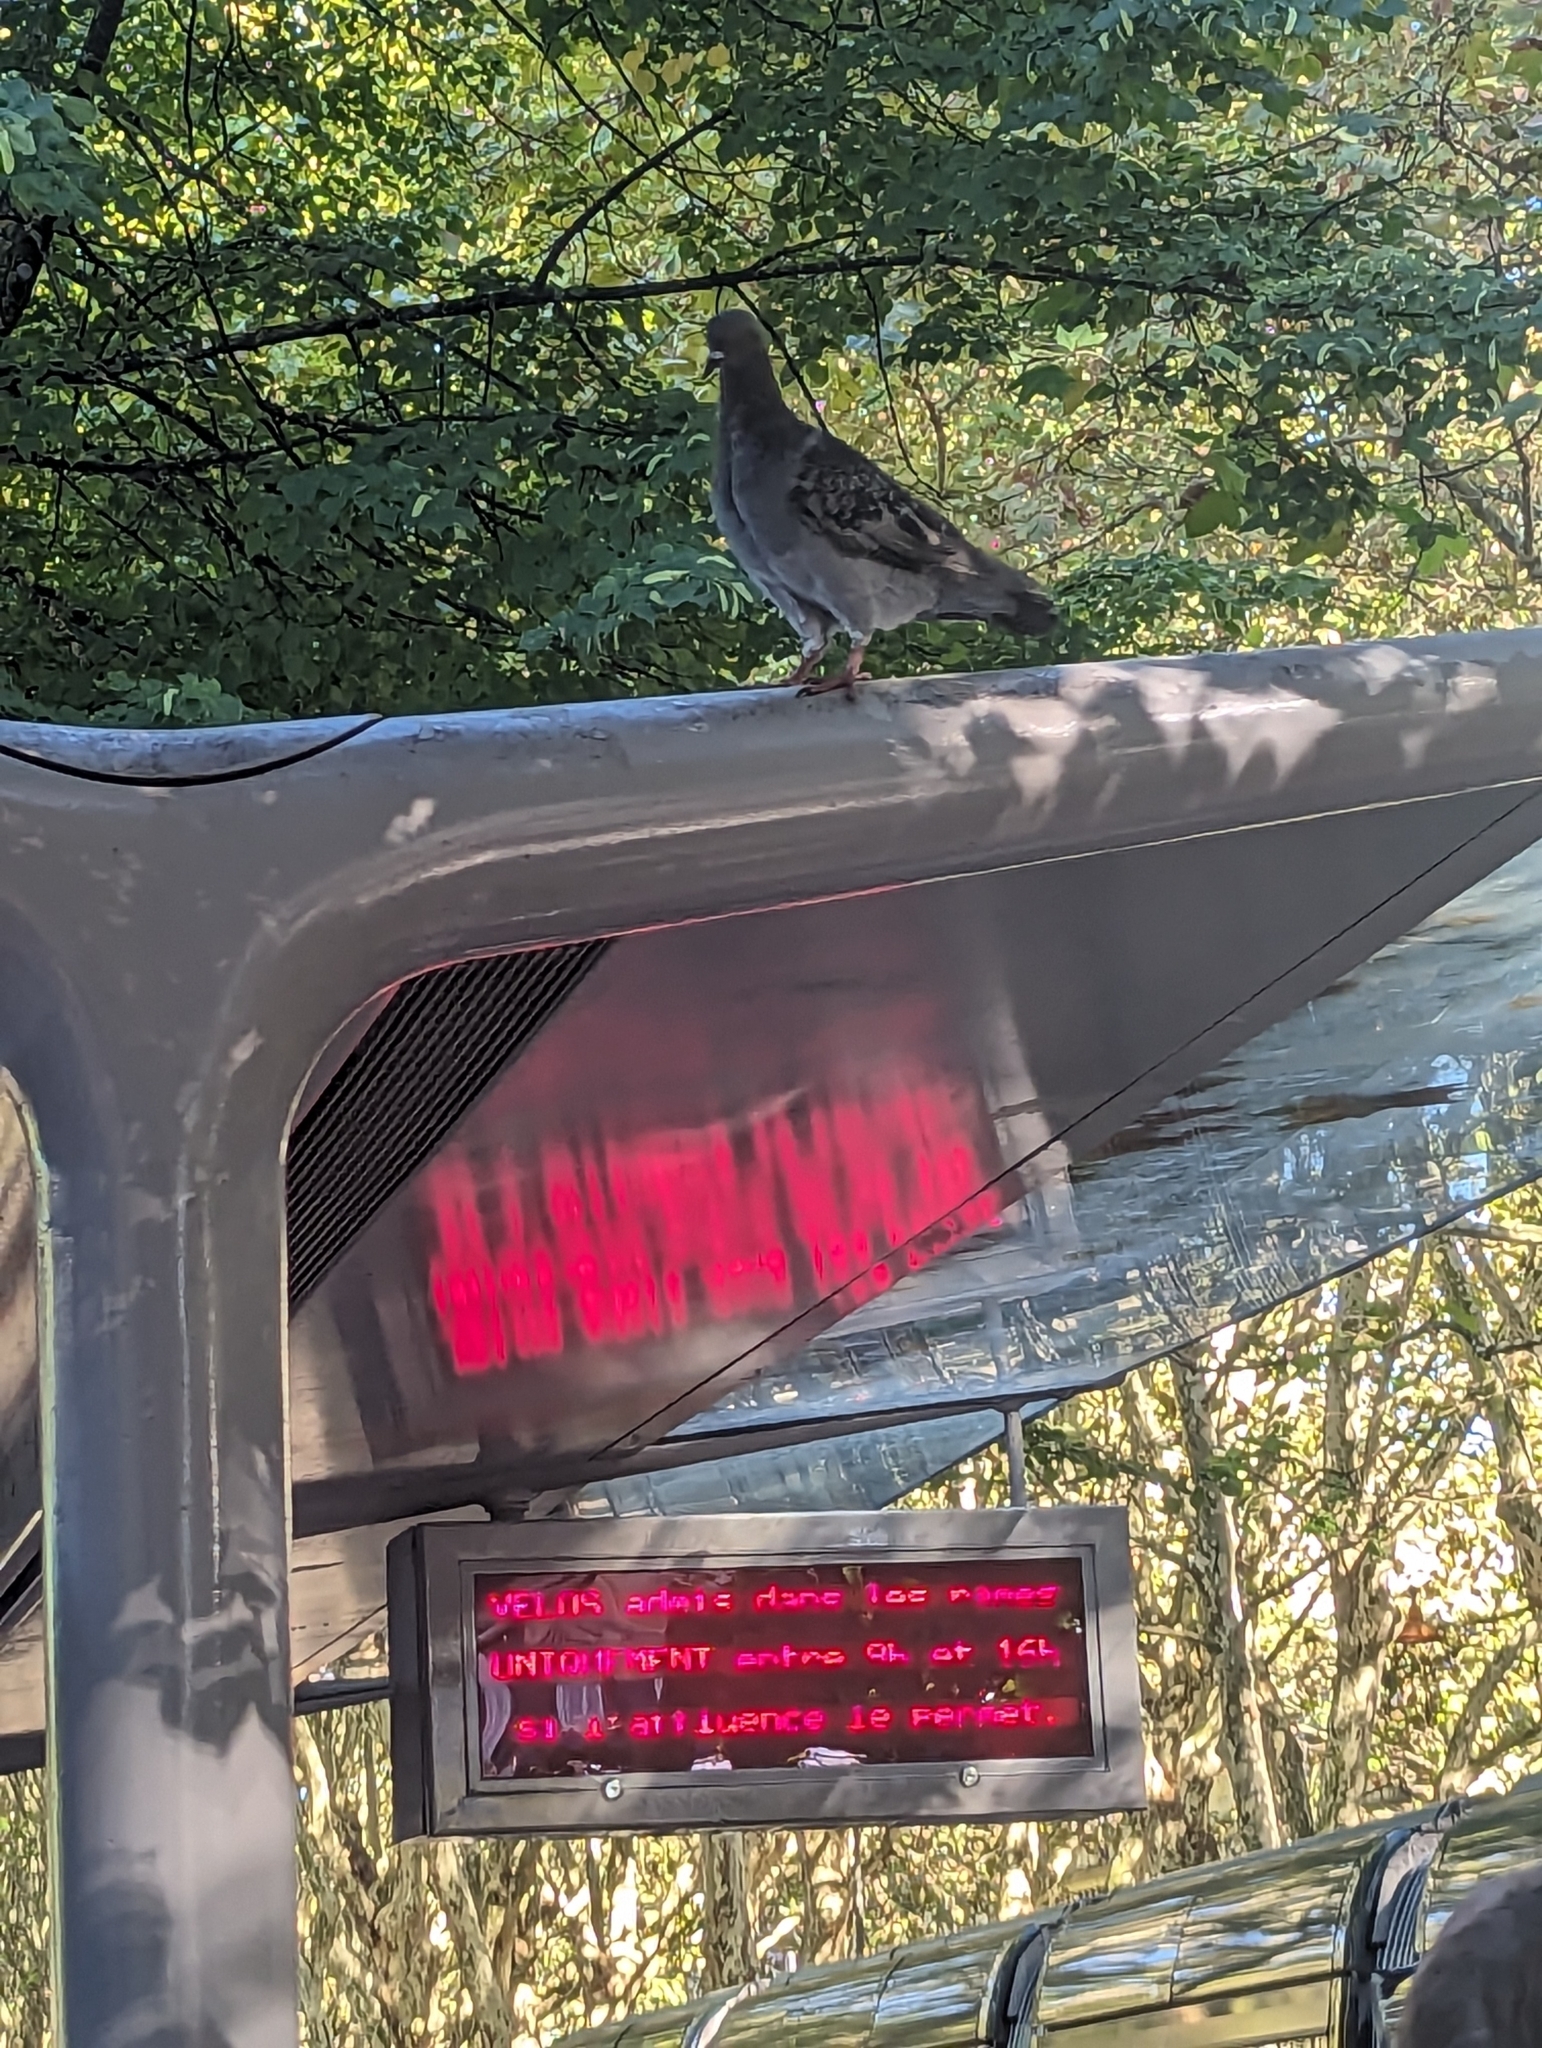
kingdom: Animalia
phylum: Chordata
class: Aves
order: Columbiformes
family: Columbidae
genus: Columba
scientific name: Columba livia
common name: Rock pigeon
